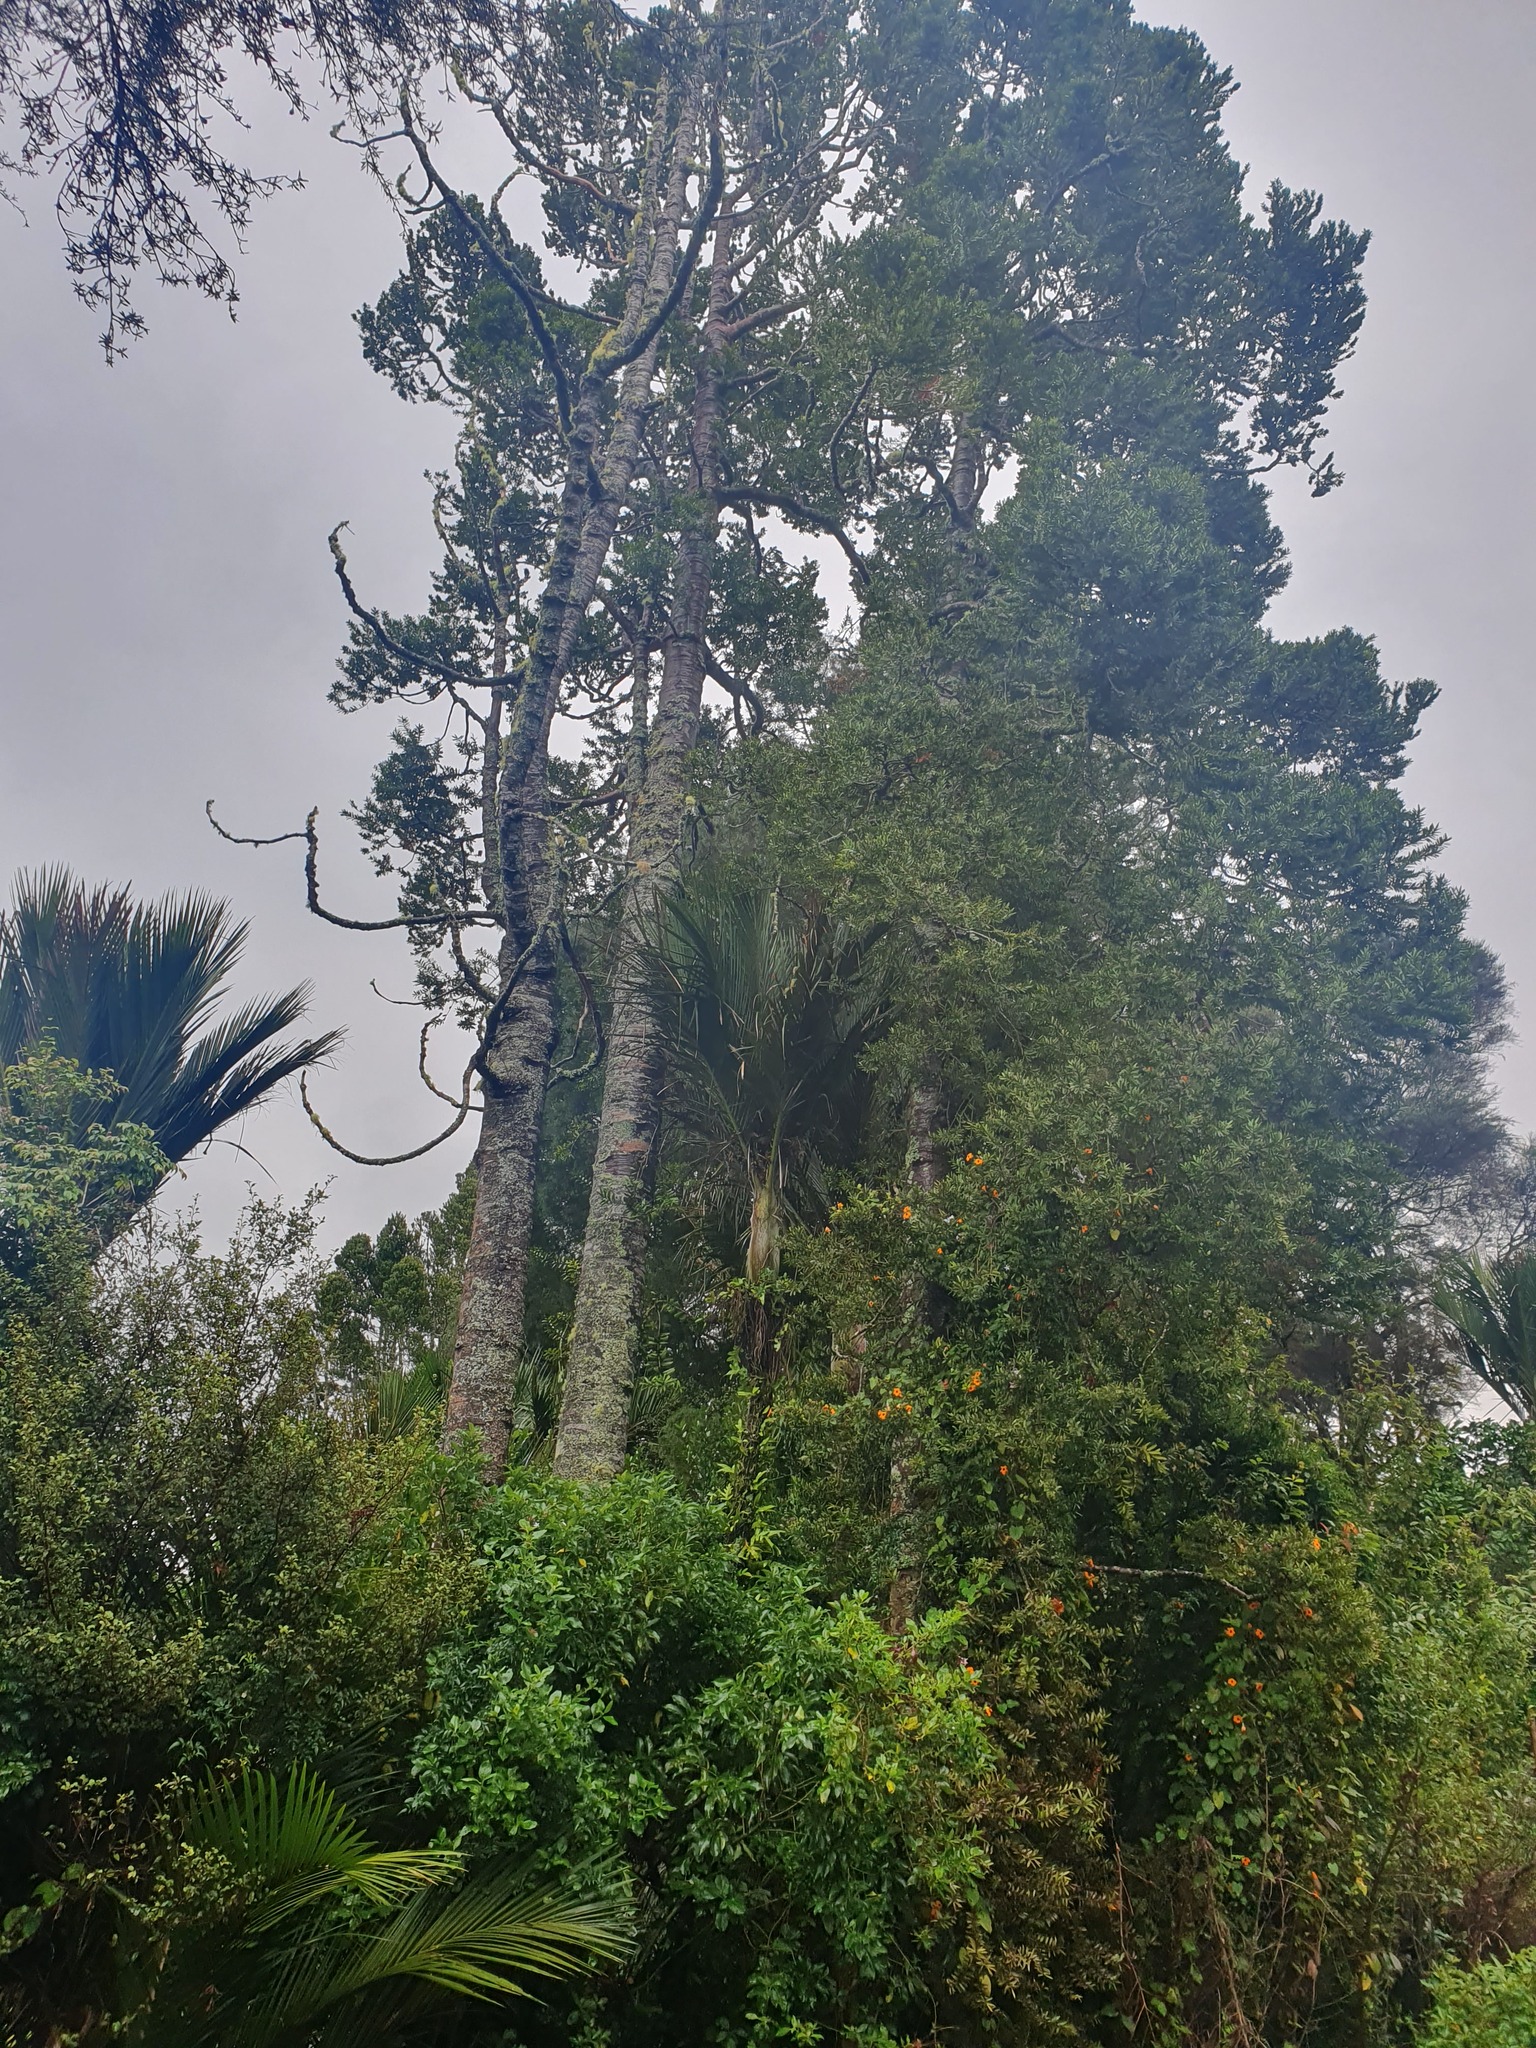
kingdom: Plantae
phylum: Tracheophyta
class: Pinopsida
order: Pinales
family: Araucariaceae
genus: Agathis
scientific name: Agathis australis
